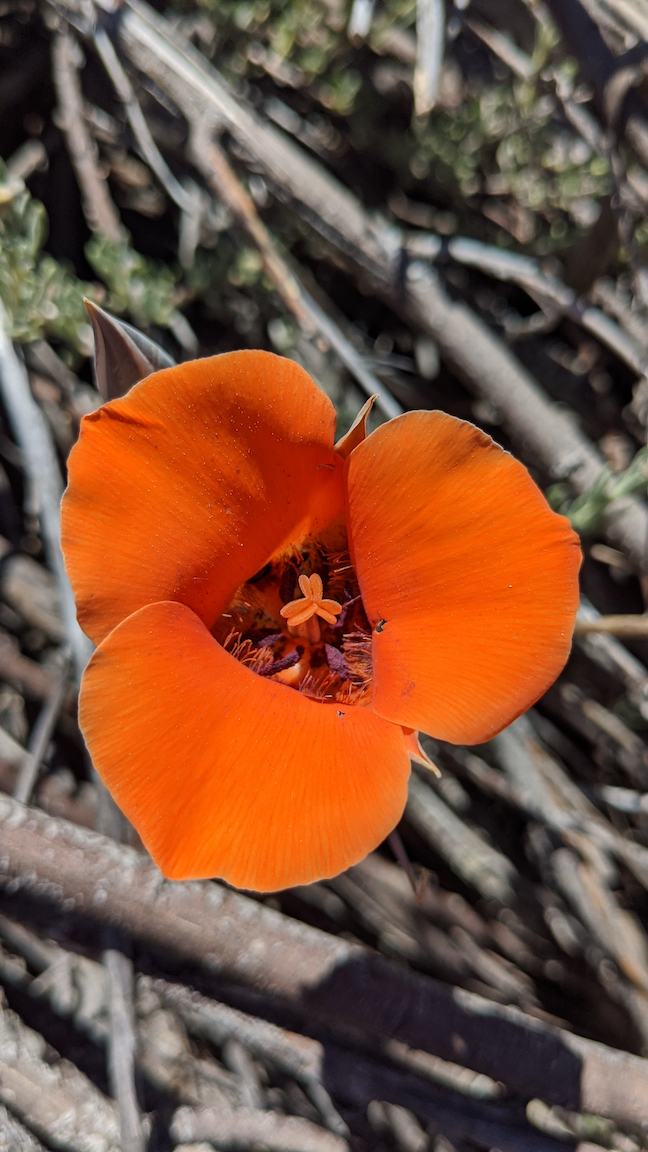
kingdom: Plantae
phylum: Tracheophyta
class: Liliopsida
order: Liliales
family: Liliaceae
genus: Calochortus
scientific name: Calochortus kennedyi
